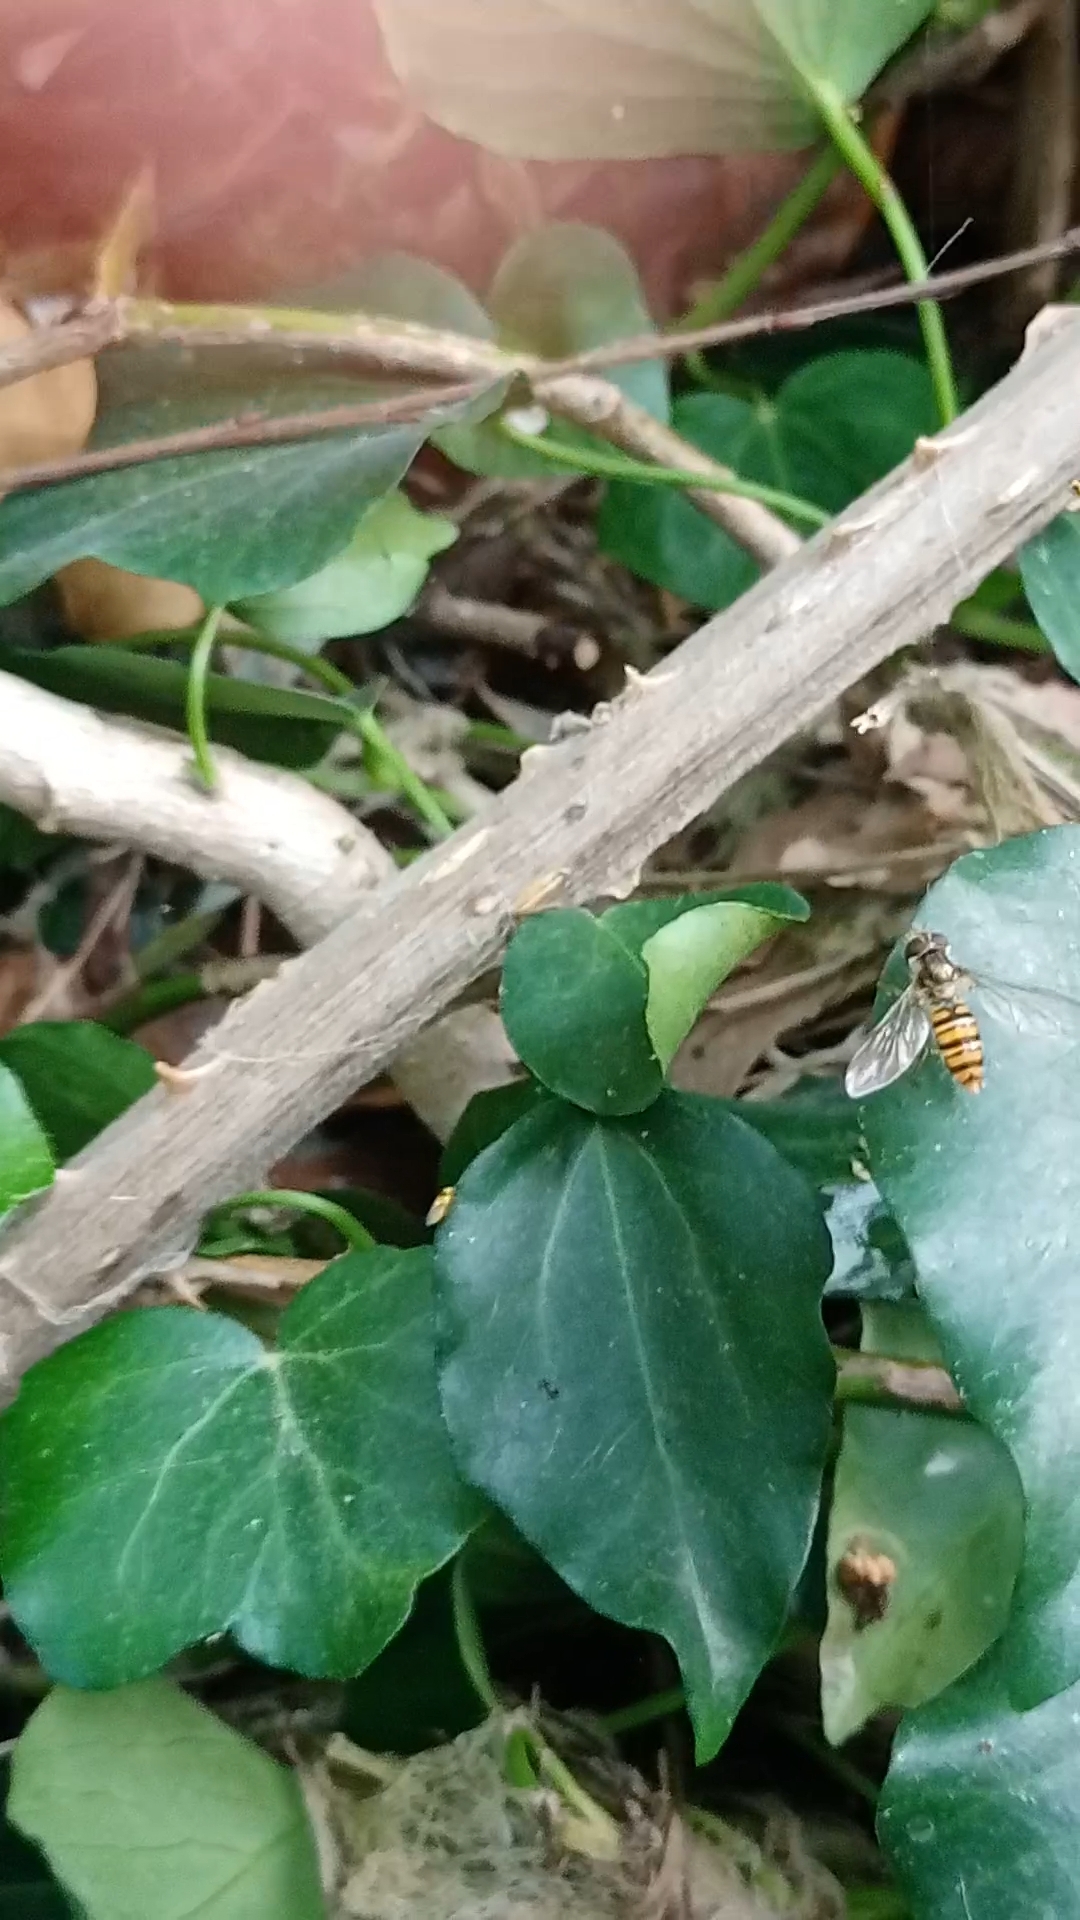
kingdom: Animalia
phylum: Arthropoda
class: Insecta
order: Diptera
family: Syrphidae
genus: Episyrphus
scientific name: Episyrphus balteatus
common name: Marmalade hoverfly
